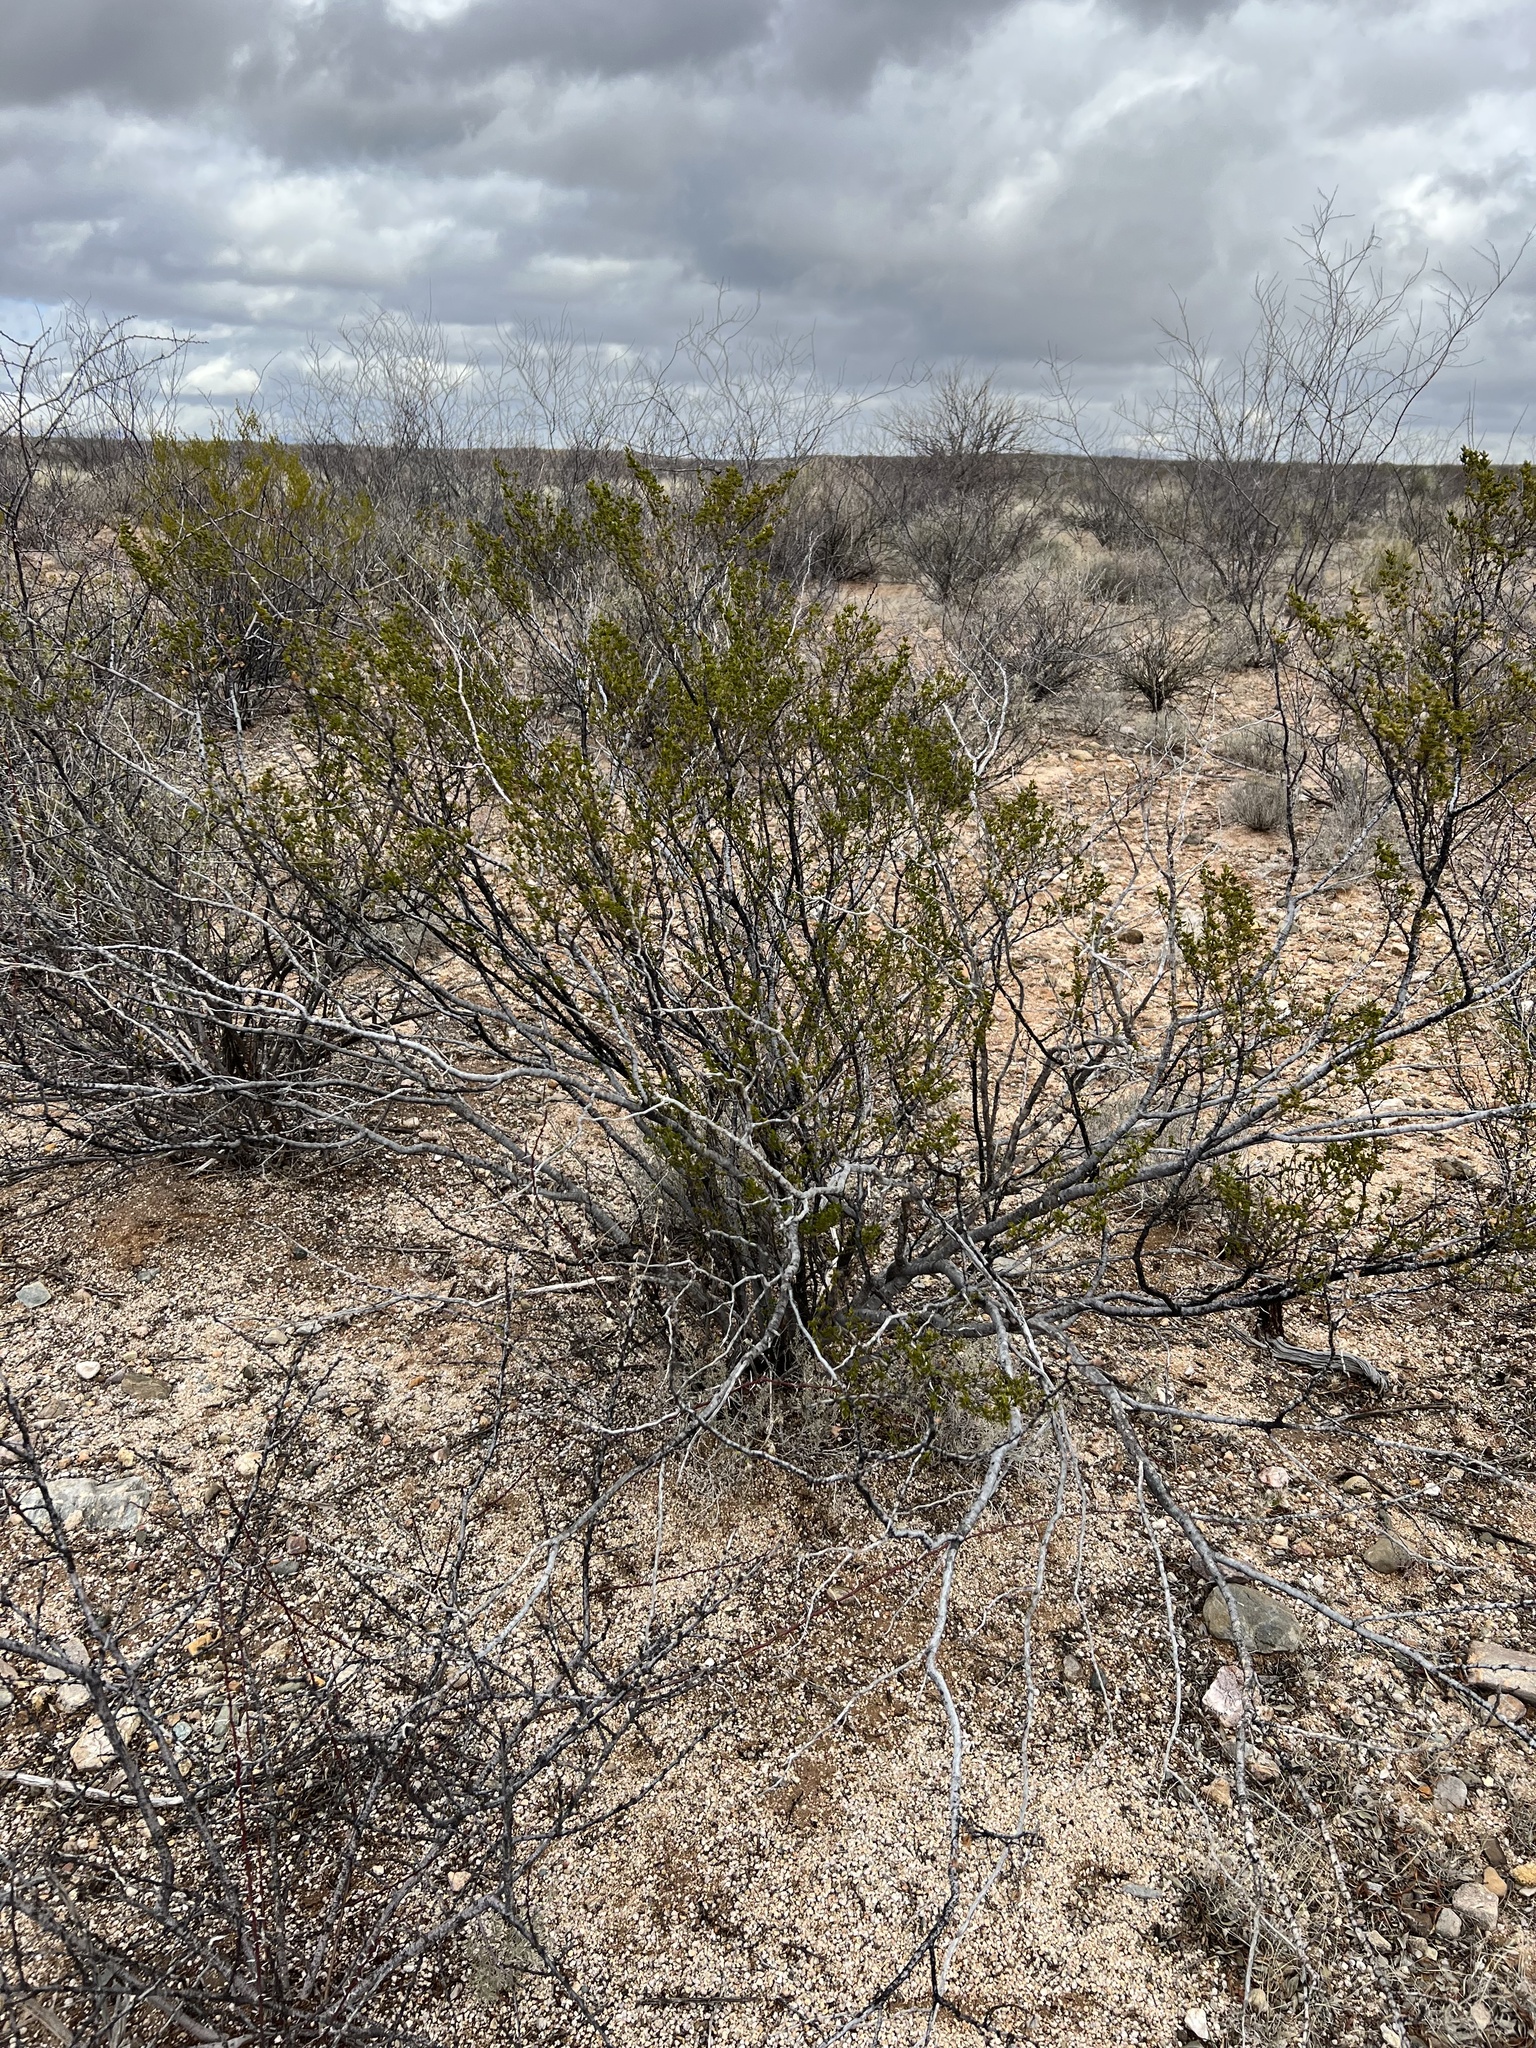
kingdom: Plantae
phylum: Tracheophyta
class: Magnoliopsida
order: Zygophyllales
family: Zygophyllaceae
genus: Larrea
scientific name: Larrea tridentata
